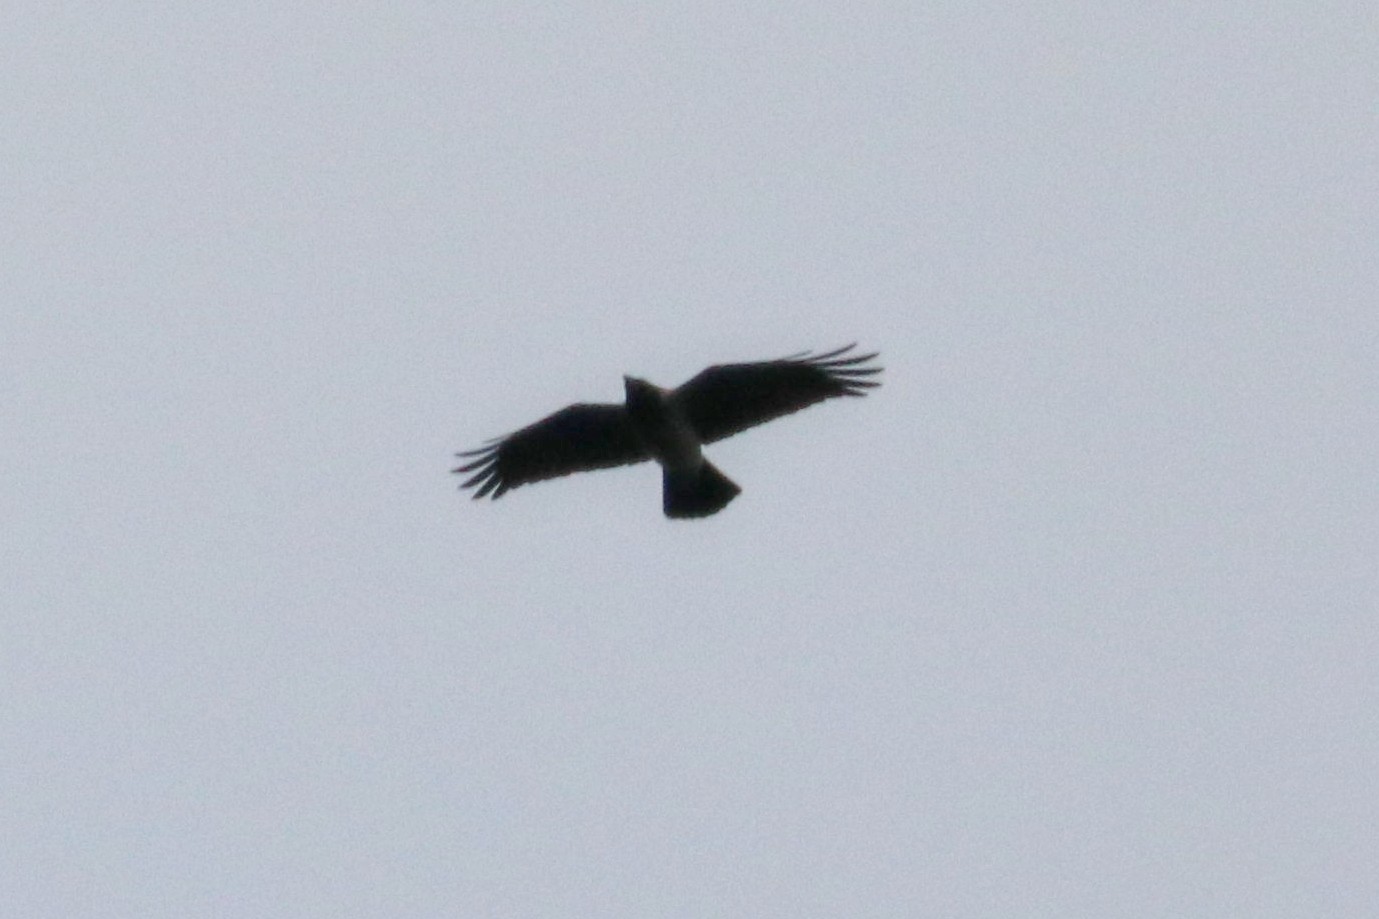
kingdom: Animalia
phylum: Chordata
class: Aves
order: Passeriformes
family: Corvidae
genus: Corvus
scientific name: Corvus cornix
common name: Hooded crow
